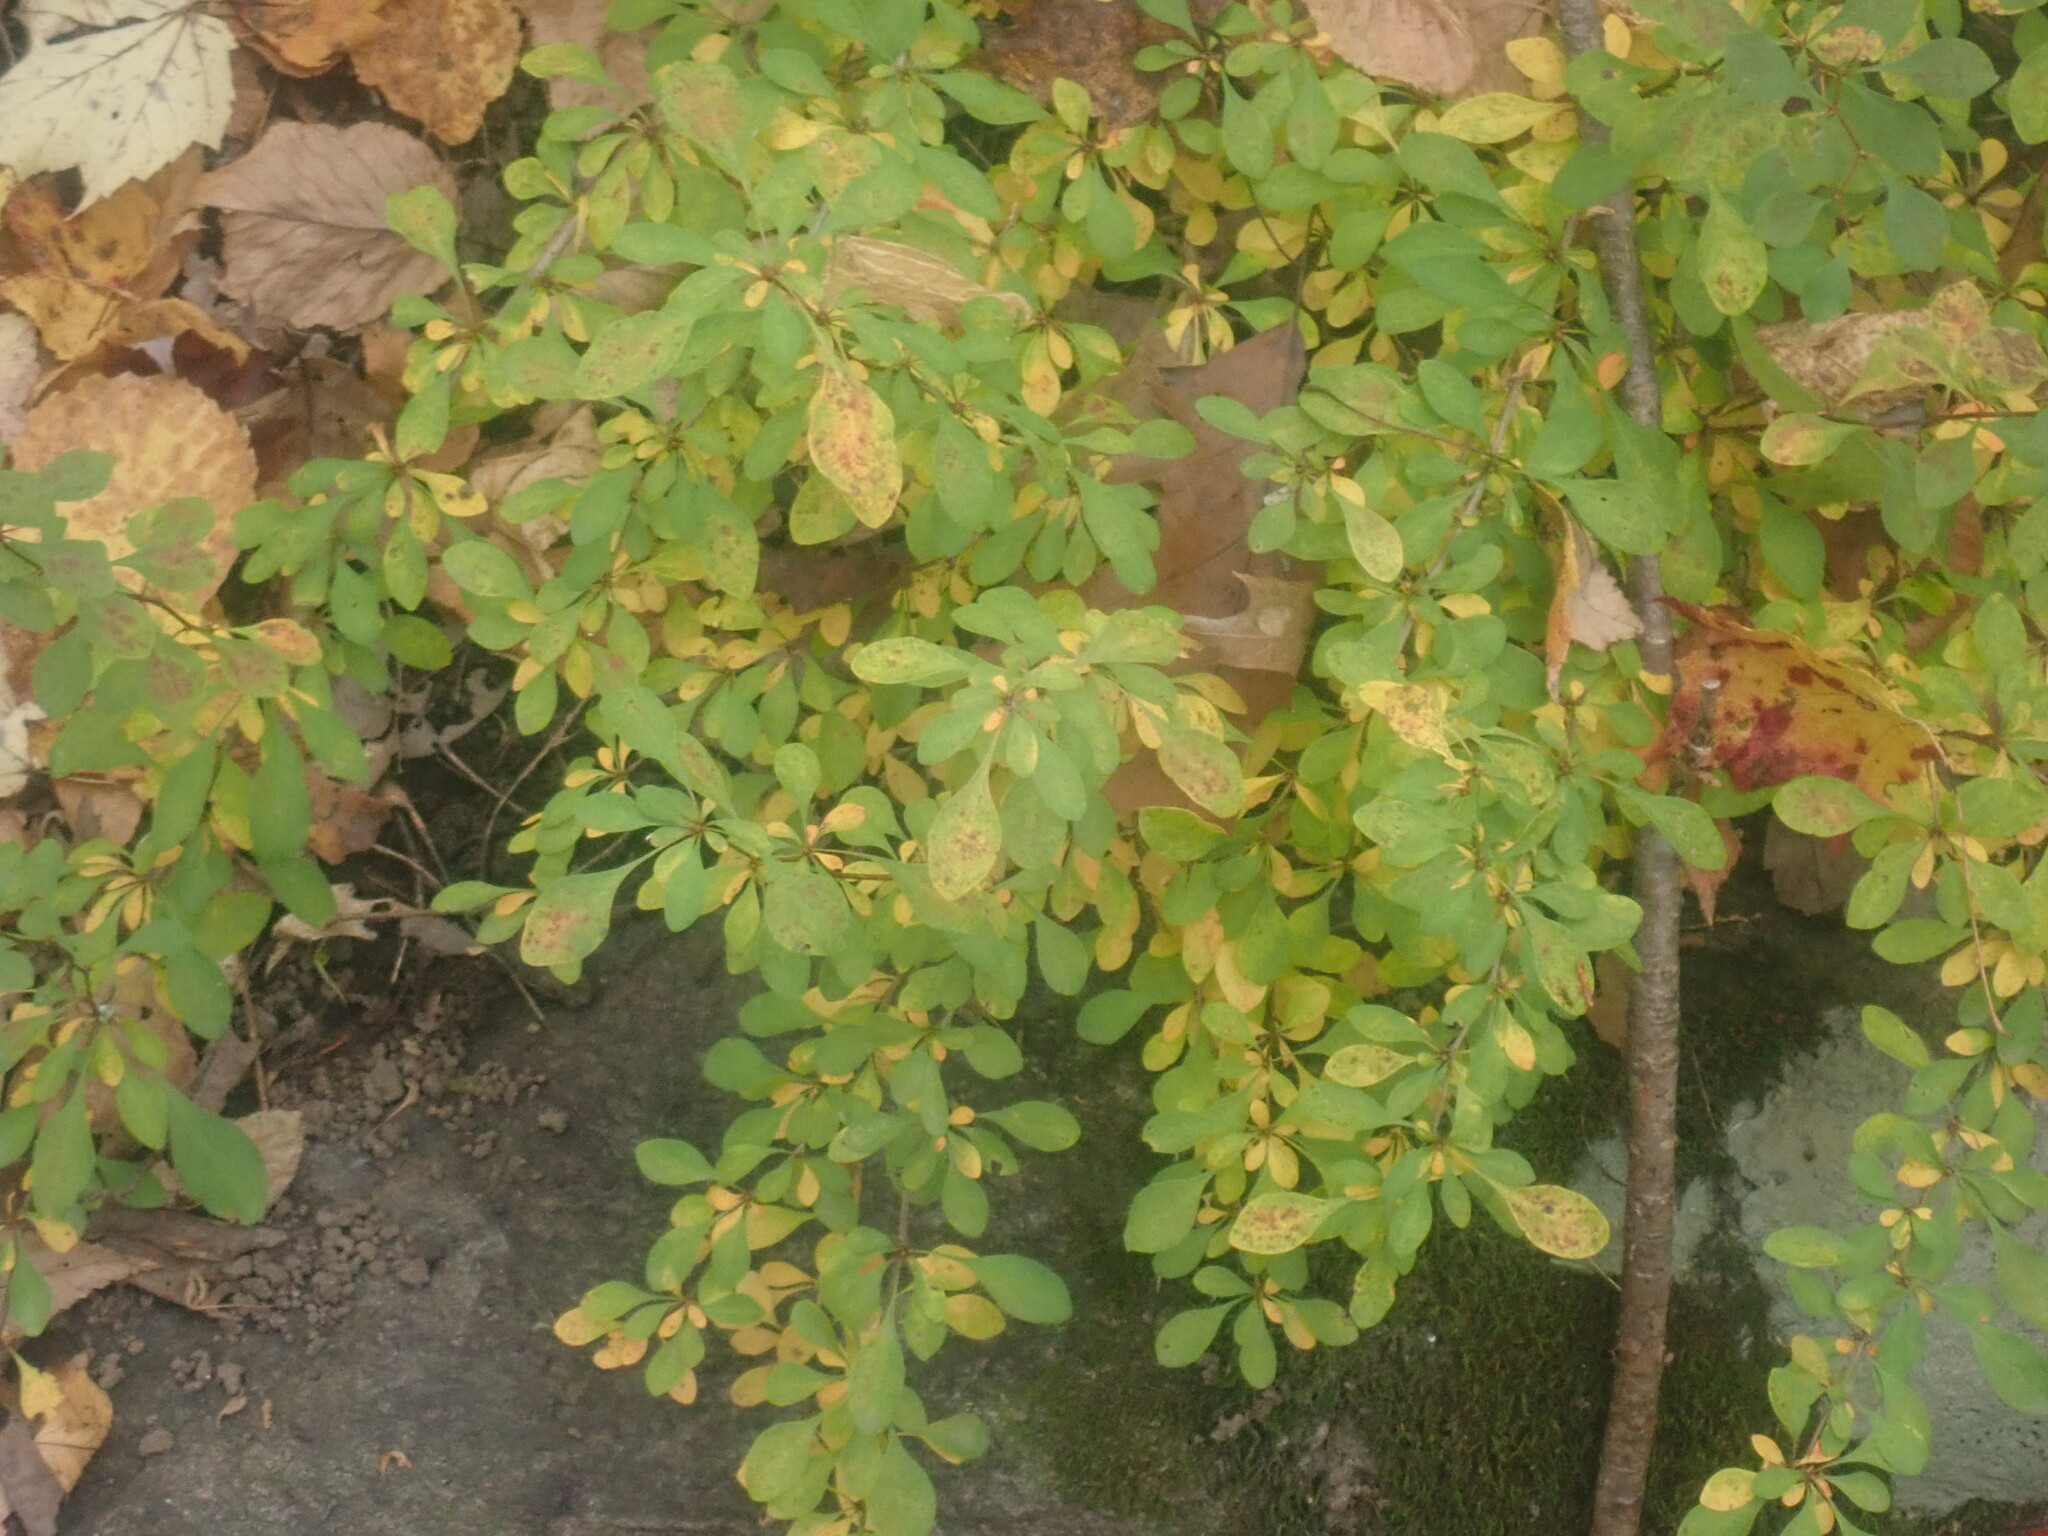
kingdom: Plantae
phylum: Tracheophyta
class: Magnoliopsida
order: Ranunculales
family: Berberidaceae
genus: Berberis
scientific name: Berberis thunbergii
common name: Japanese barberry
